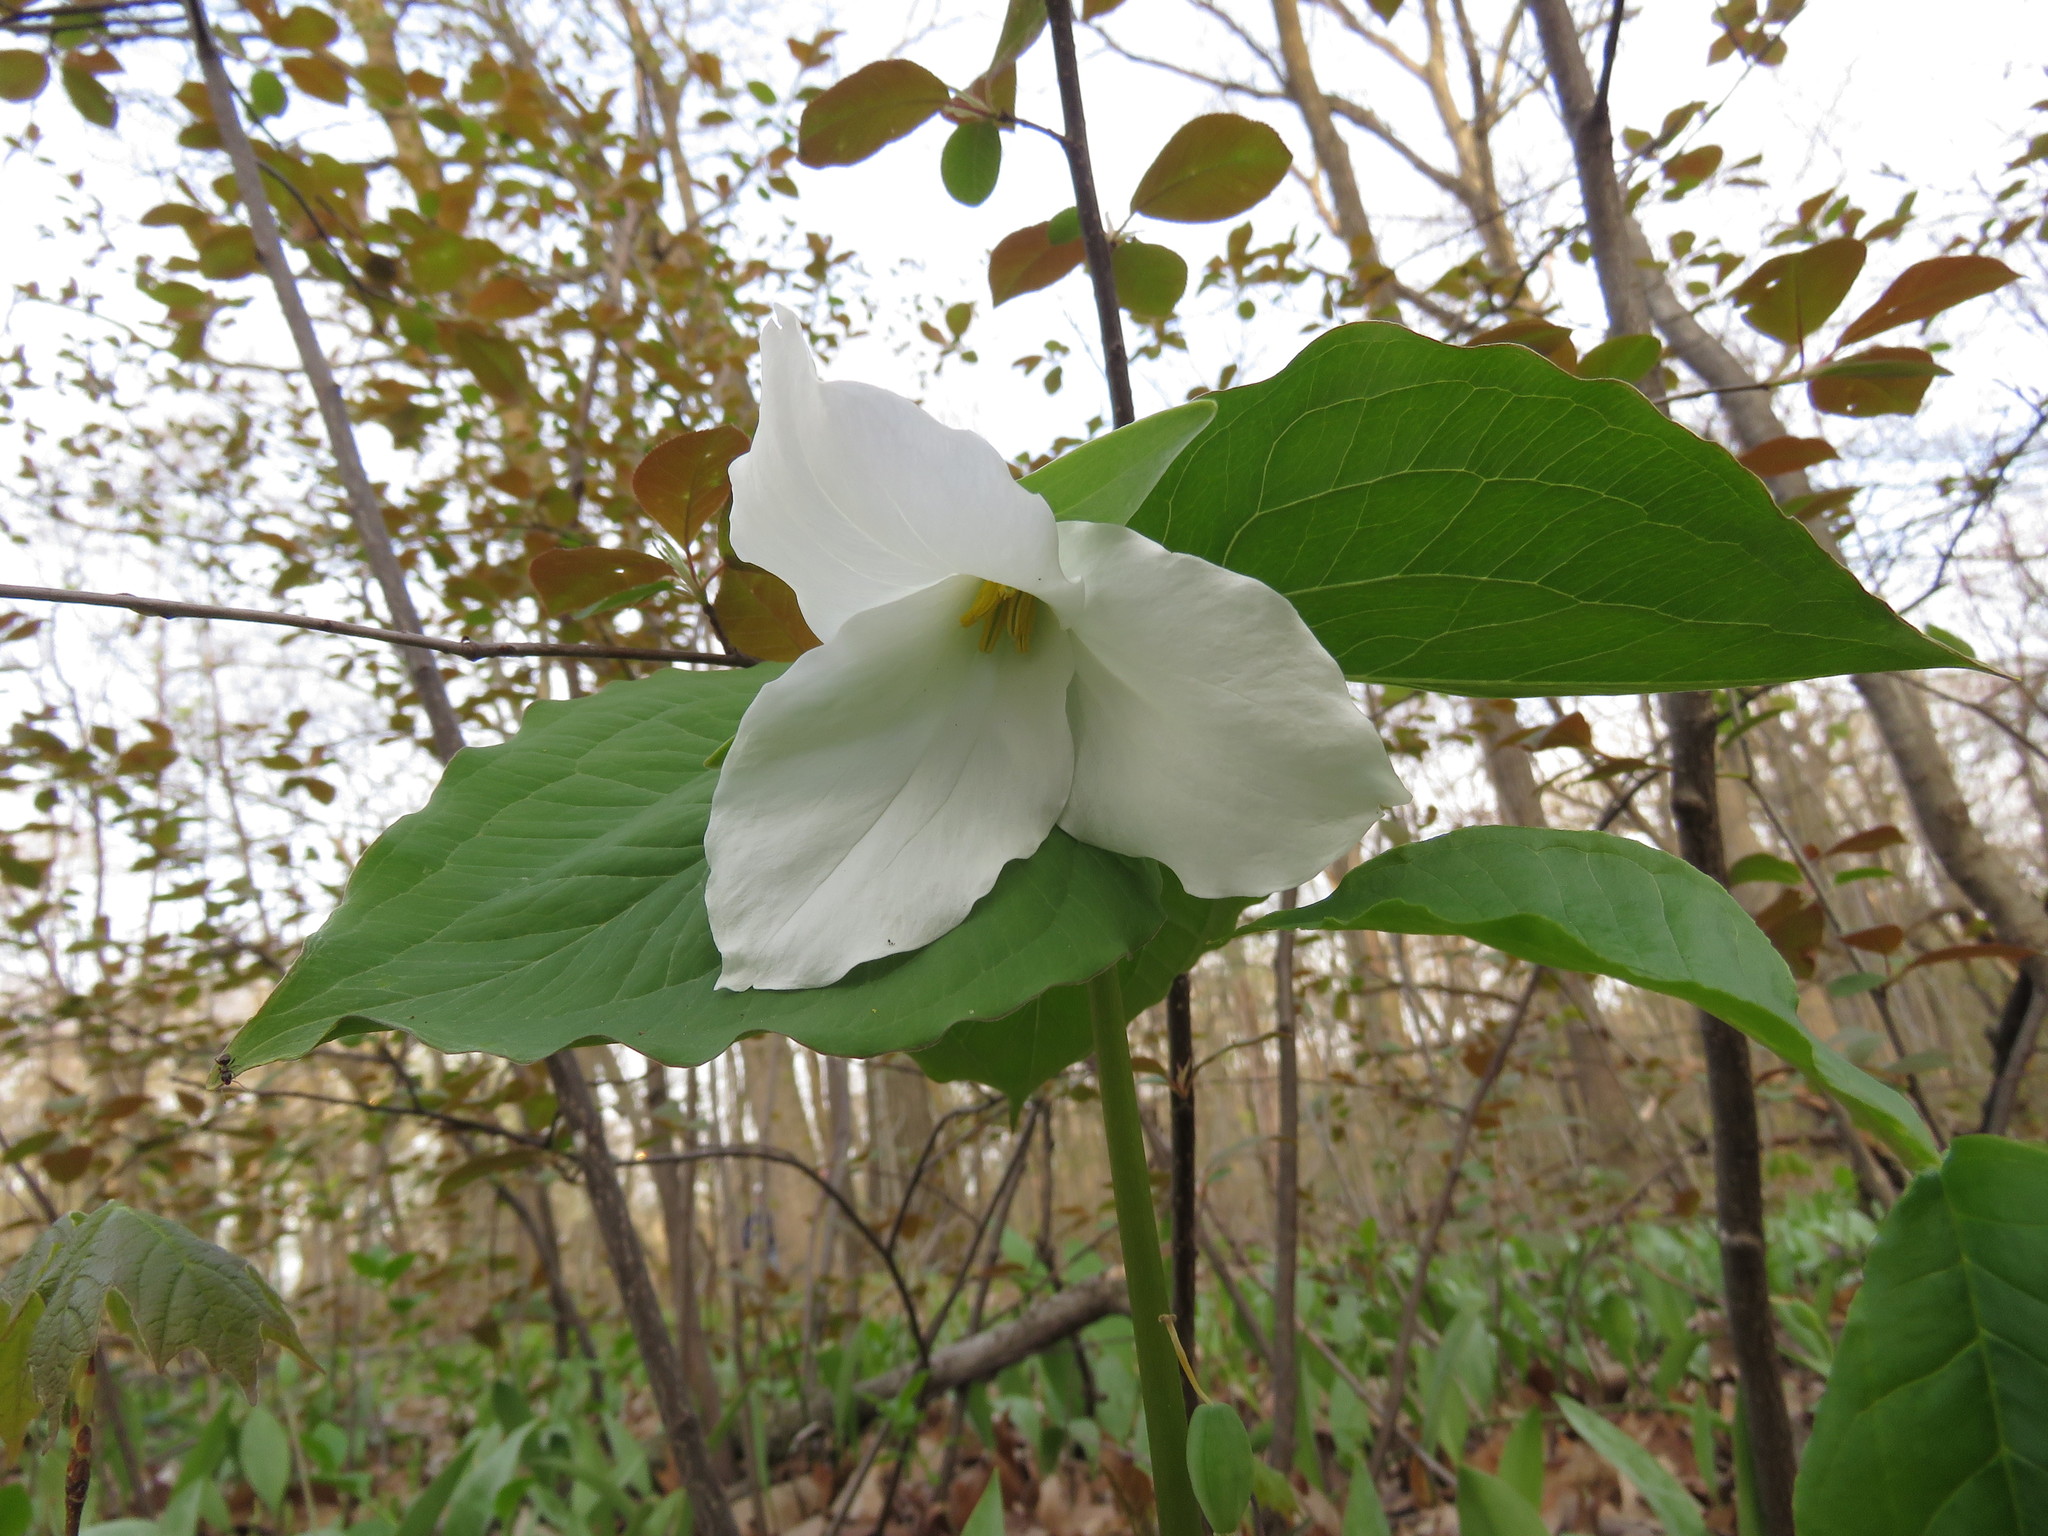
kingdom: Plantae
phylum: Tracheophyta
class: Liliopsida
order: Liliales
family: Melanthiaceae
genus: Trillium
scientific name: Trillium grandiflorum
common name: Great white trillium
